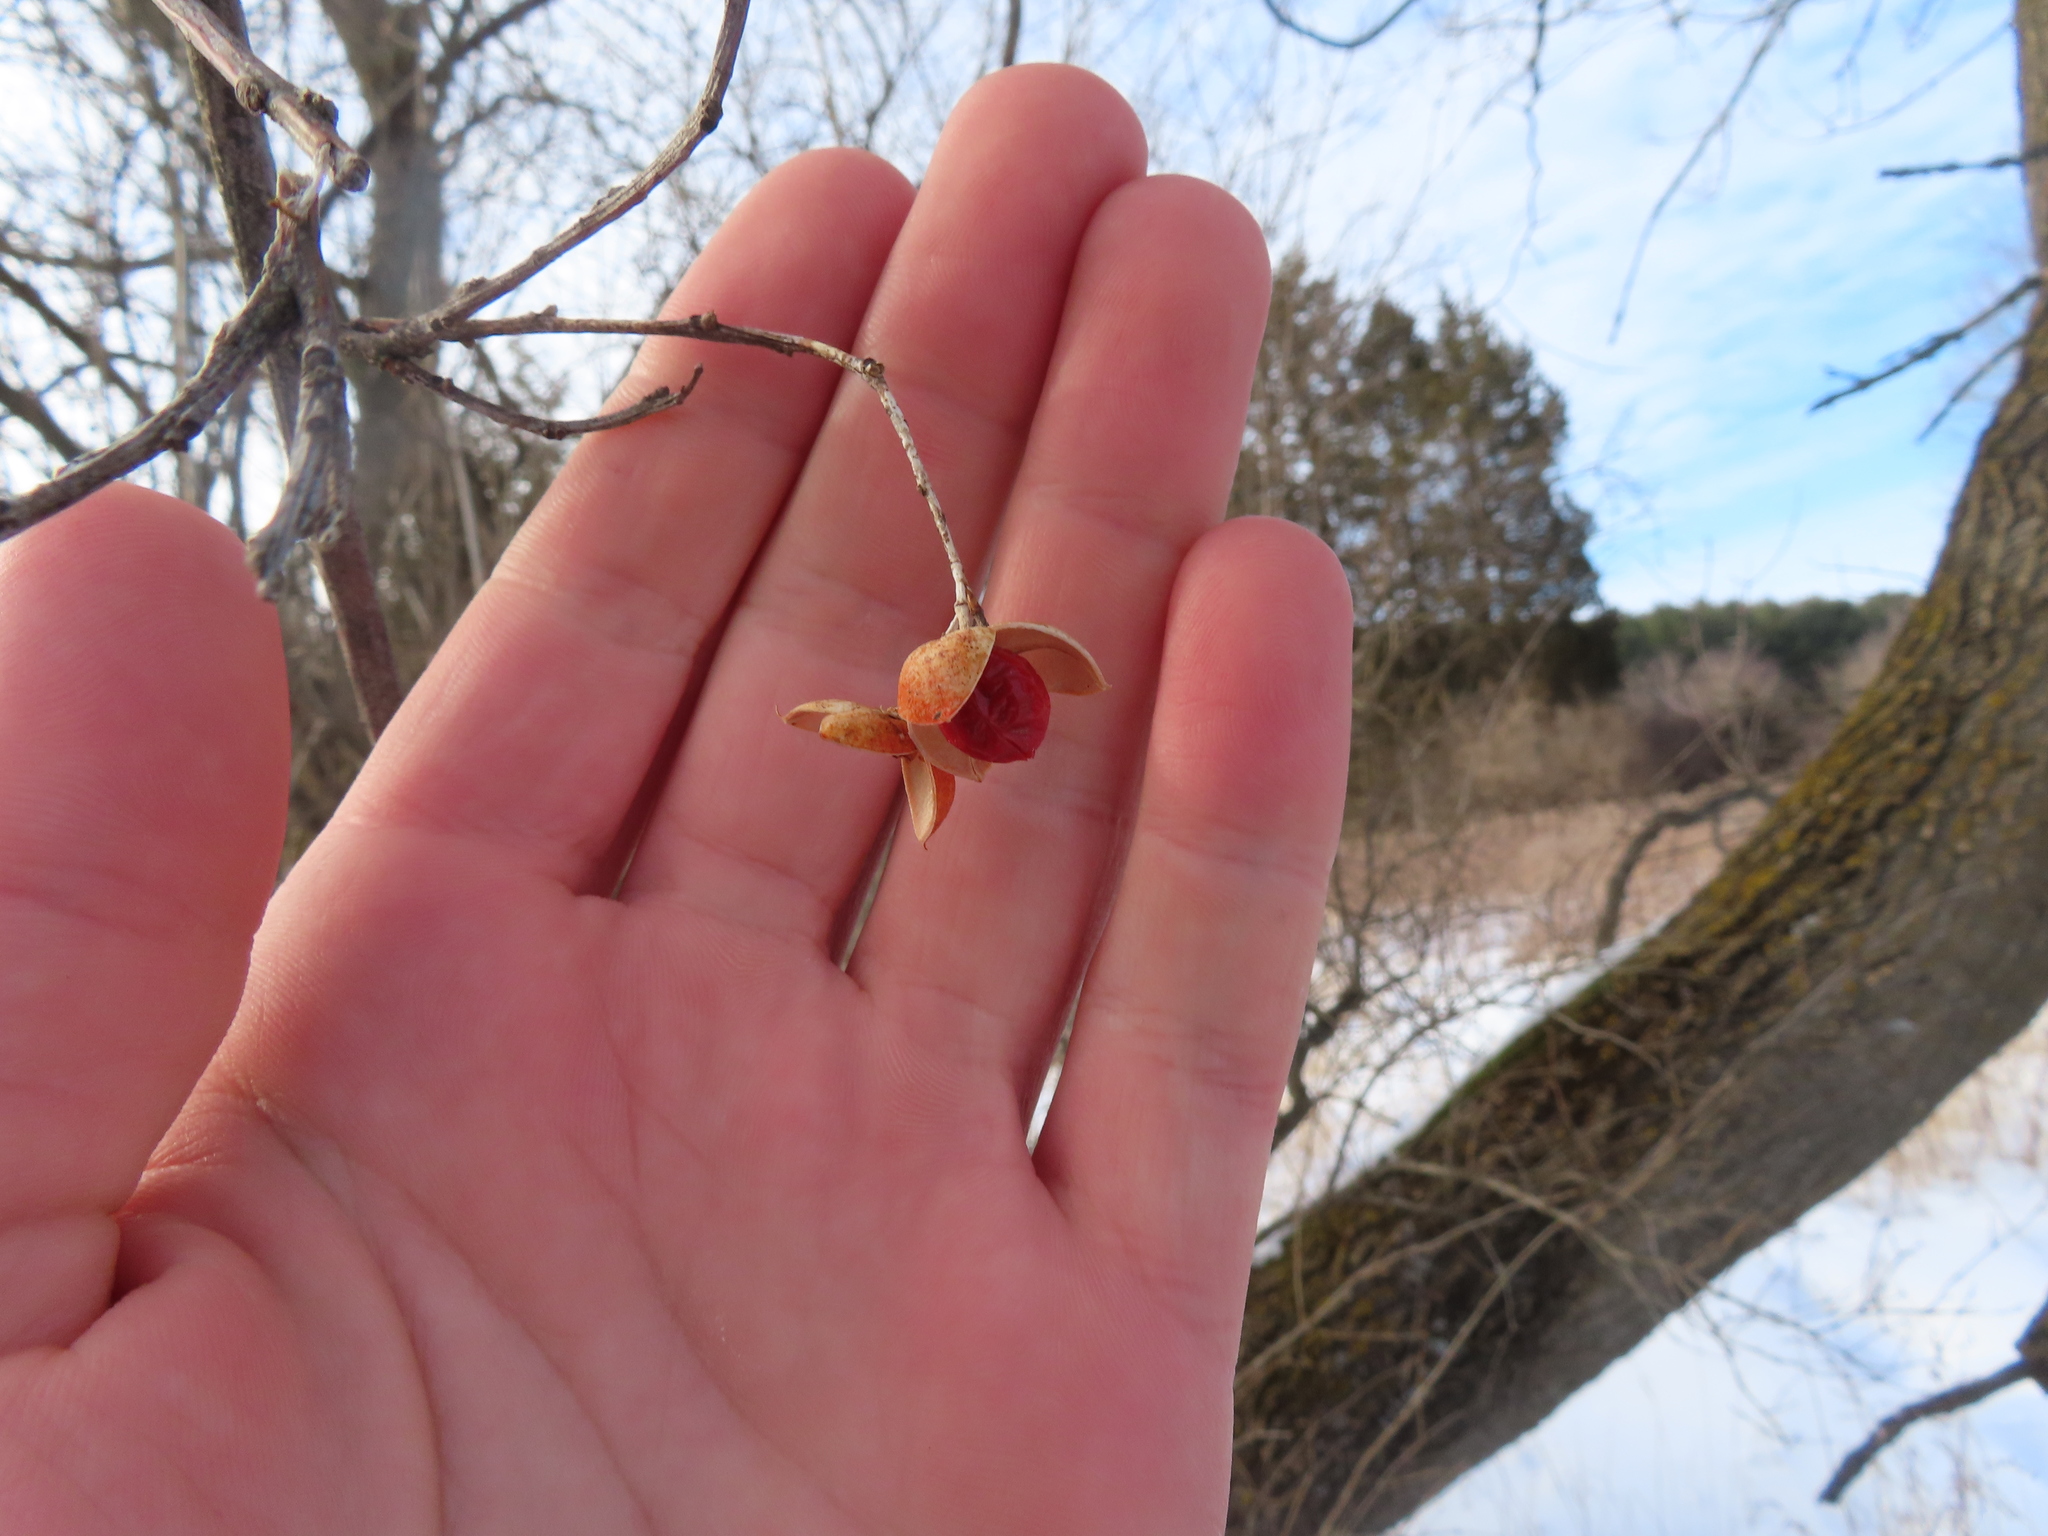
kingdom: Plantae
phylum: Tracheophyta
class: Magnoliopsida
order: Celastrales
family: Celastraceae
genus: Celastrus
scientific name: Celastrus scandens
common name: American bittersweet
